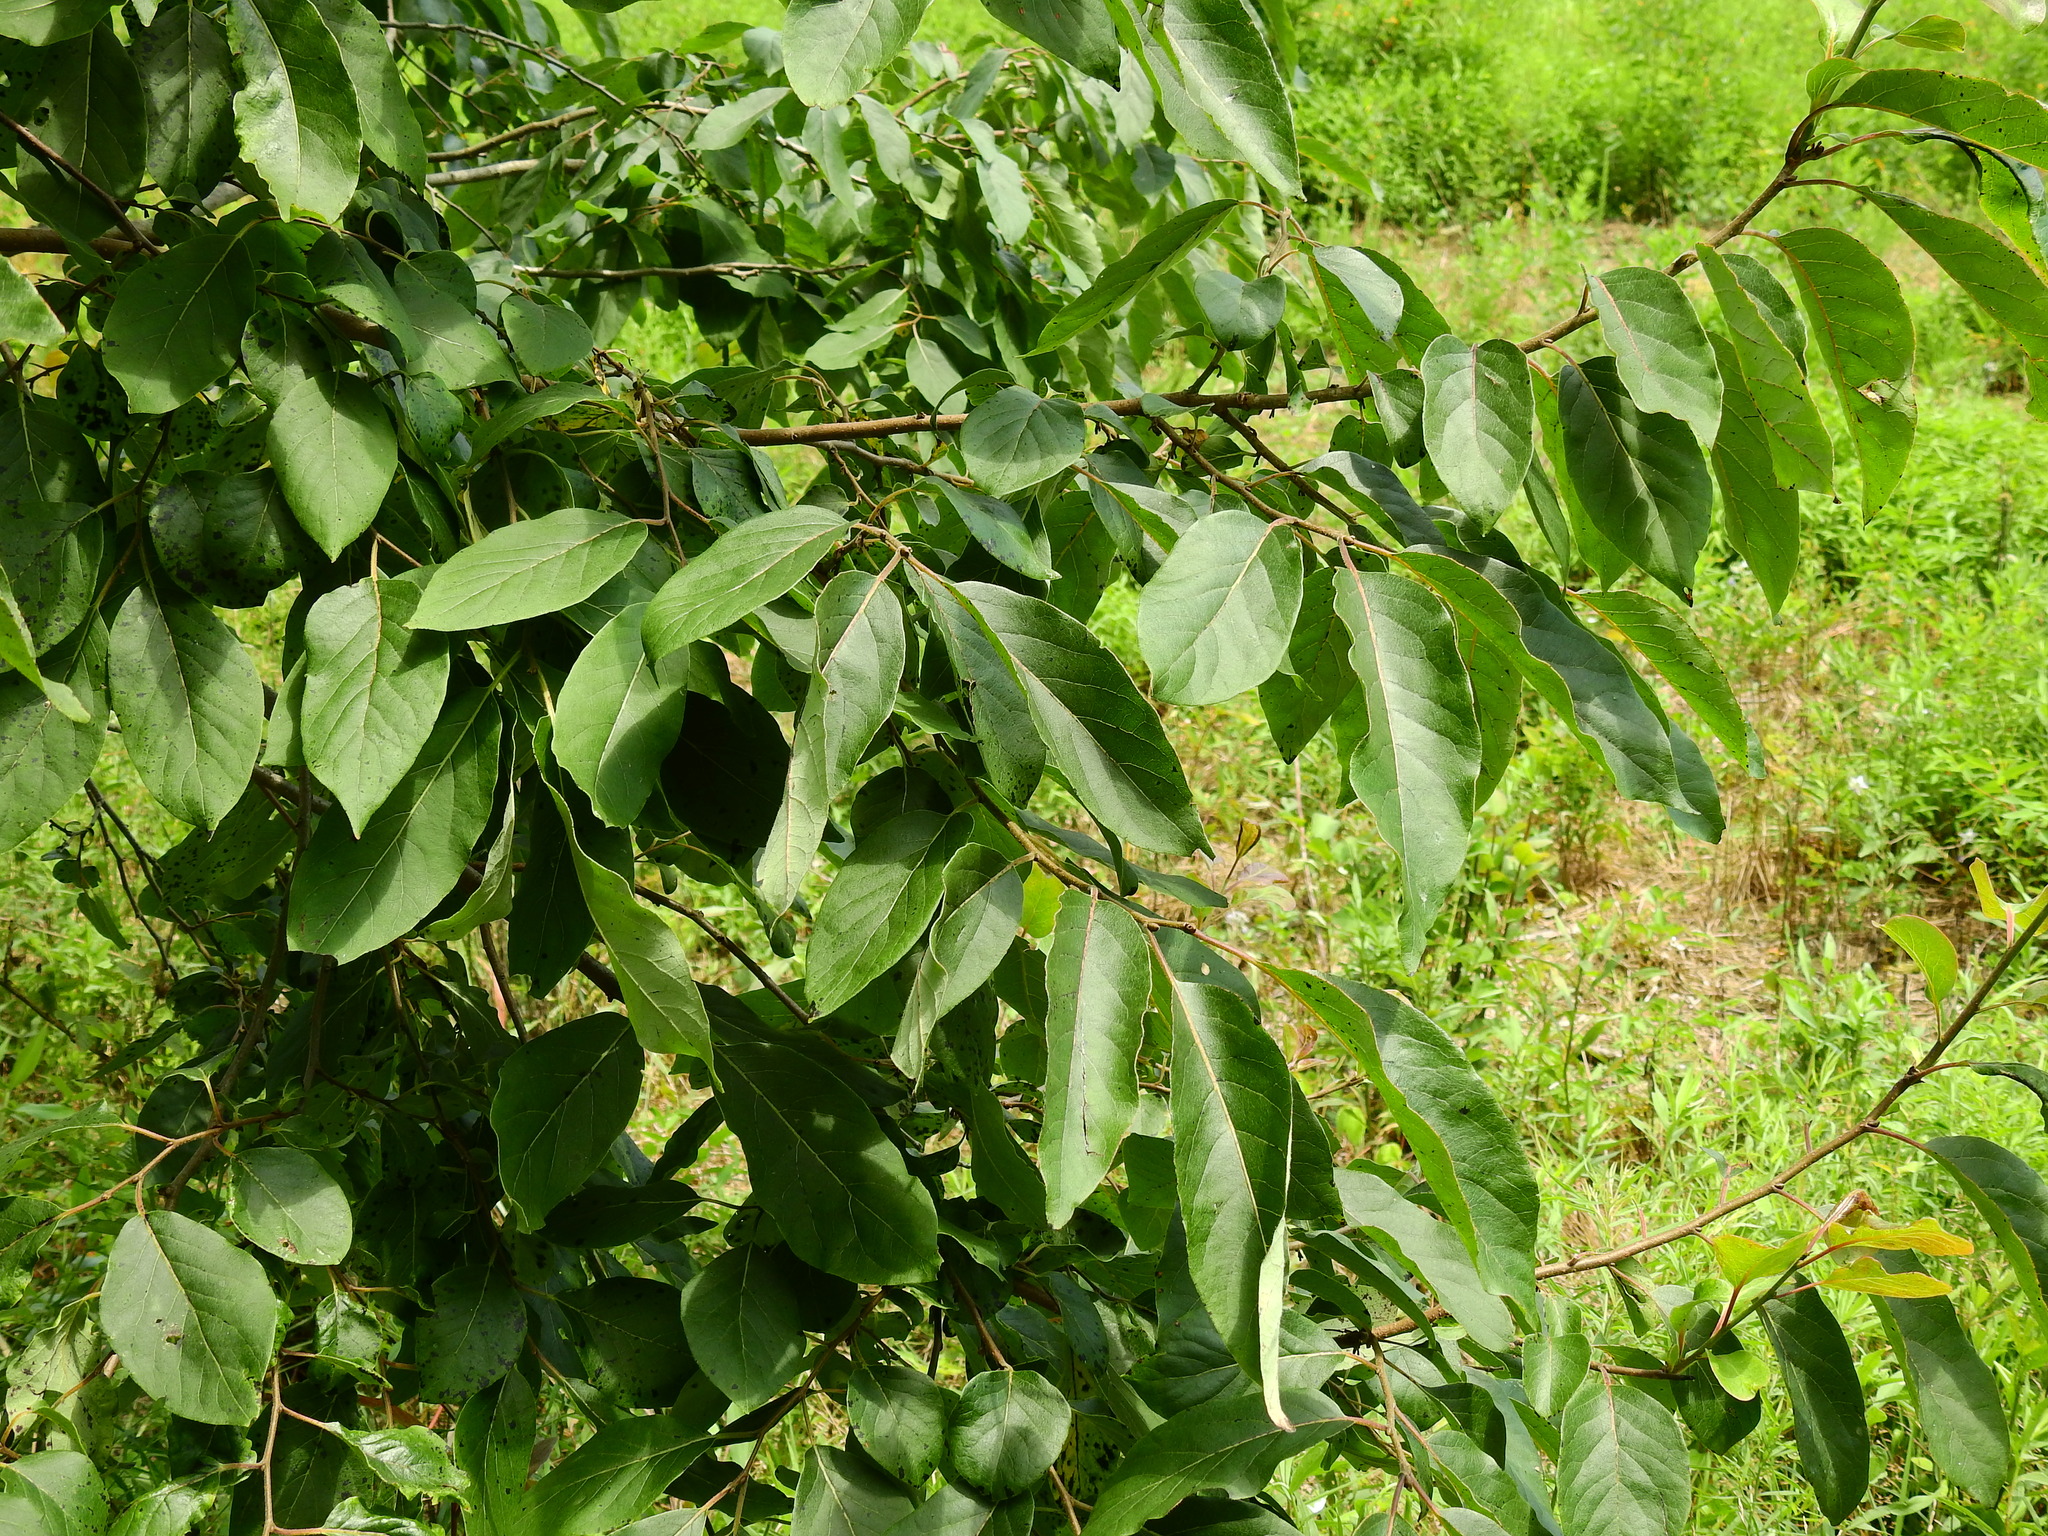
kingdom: Plantae
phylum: Tracheophyta
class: Magnoliopsida
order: Ericales
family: Ebenaceae
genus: Diospyros
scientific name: Diospyros virginiana
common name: Persimmon
